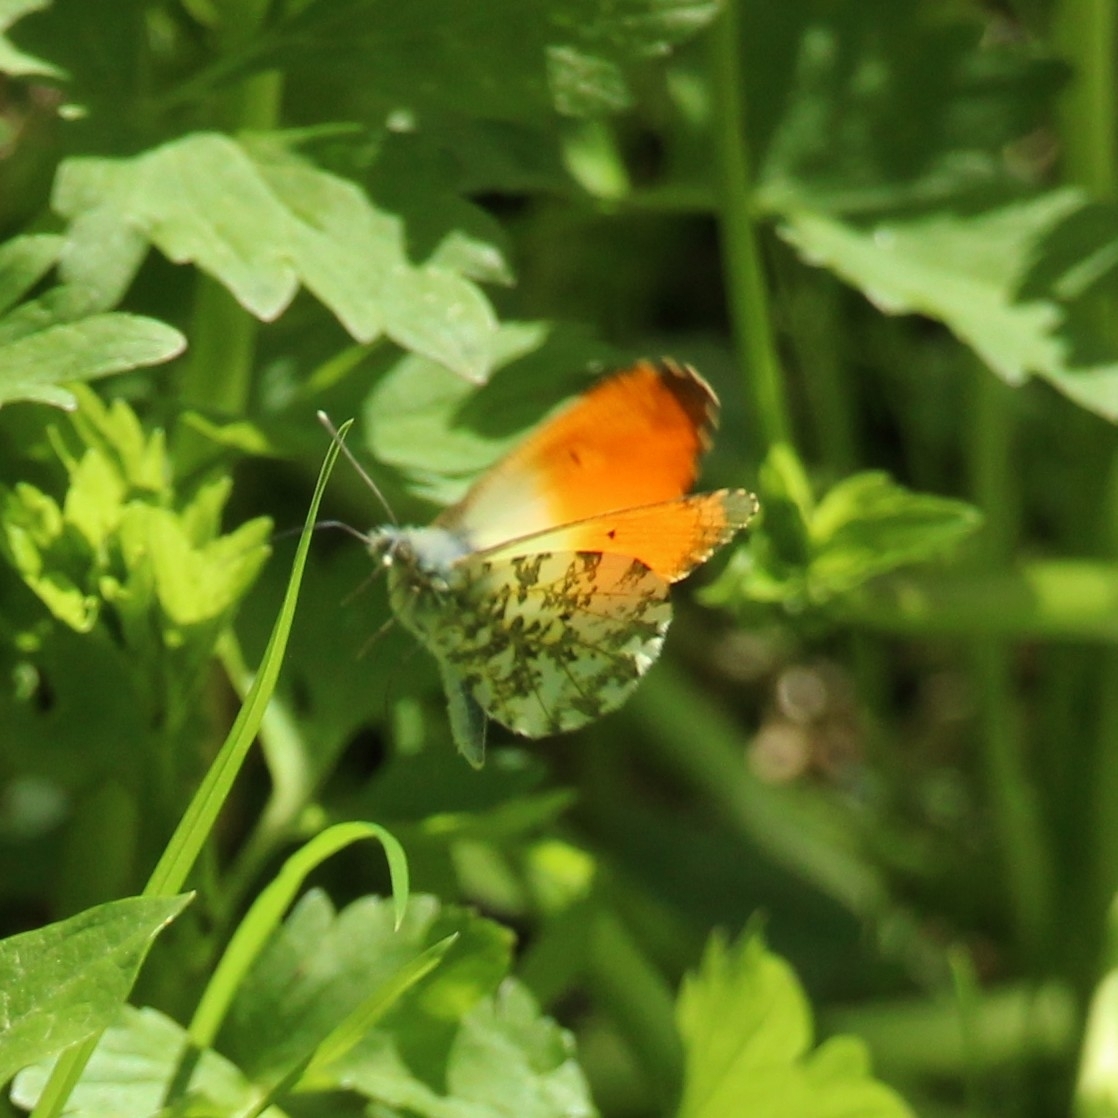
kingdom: Animalia
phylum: Arthropoda
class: Insecta
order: Lepidoptera
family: Pieridae
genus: Anthocharis
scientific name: Anthocharis cardamines
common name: Orange-tip
